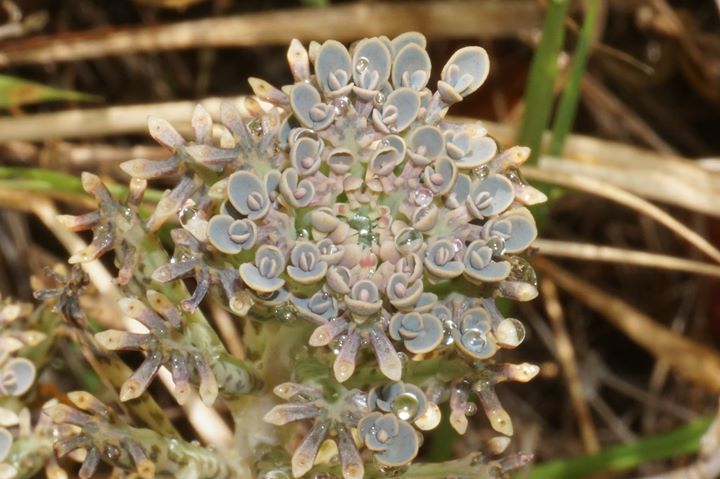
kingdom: Plantae
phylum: Tracheophyta
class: Magnoliopsida
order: Saxifragales
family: Crassulaceae
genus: Kalanchoe
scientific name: Kalanchoe delagoensis
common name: Chandelier plant
